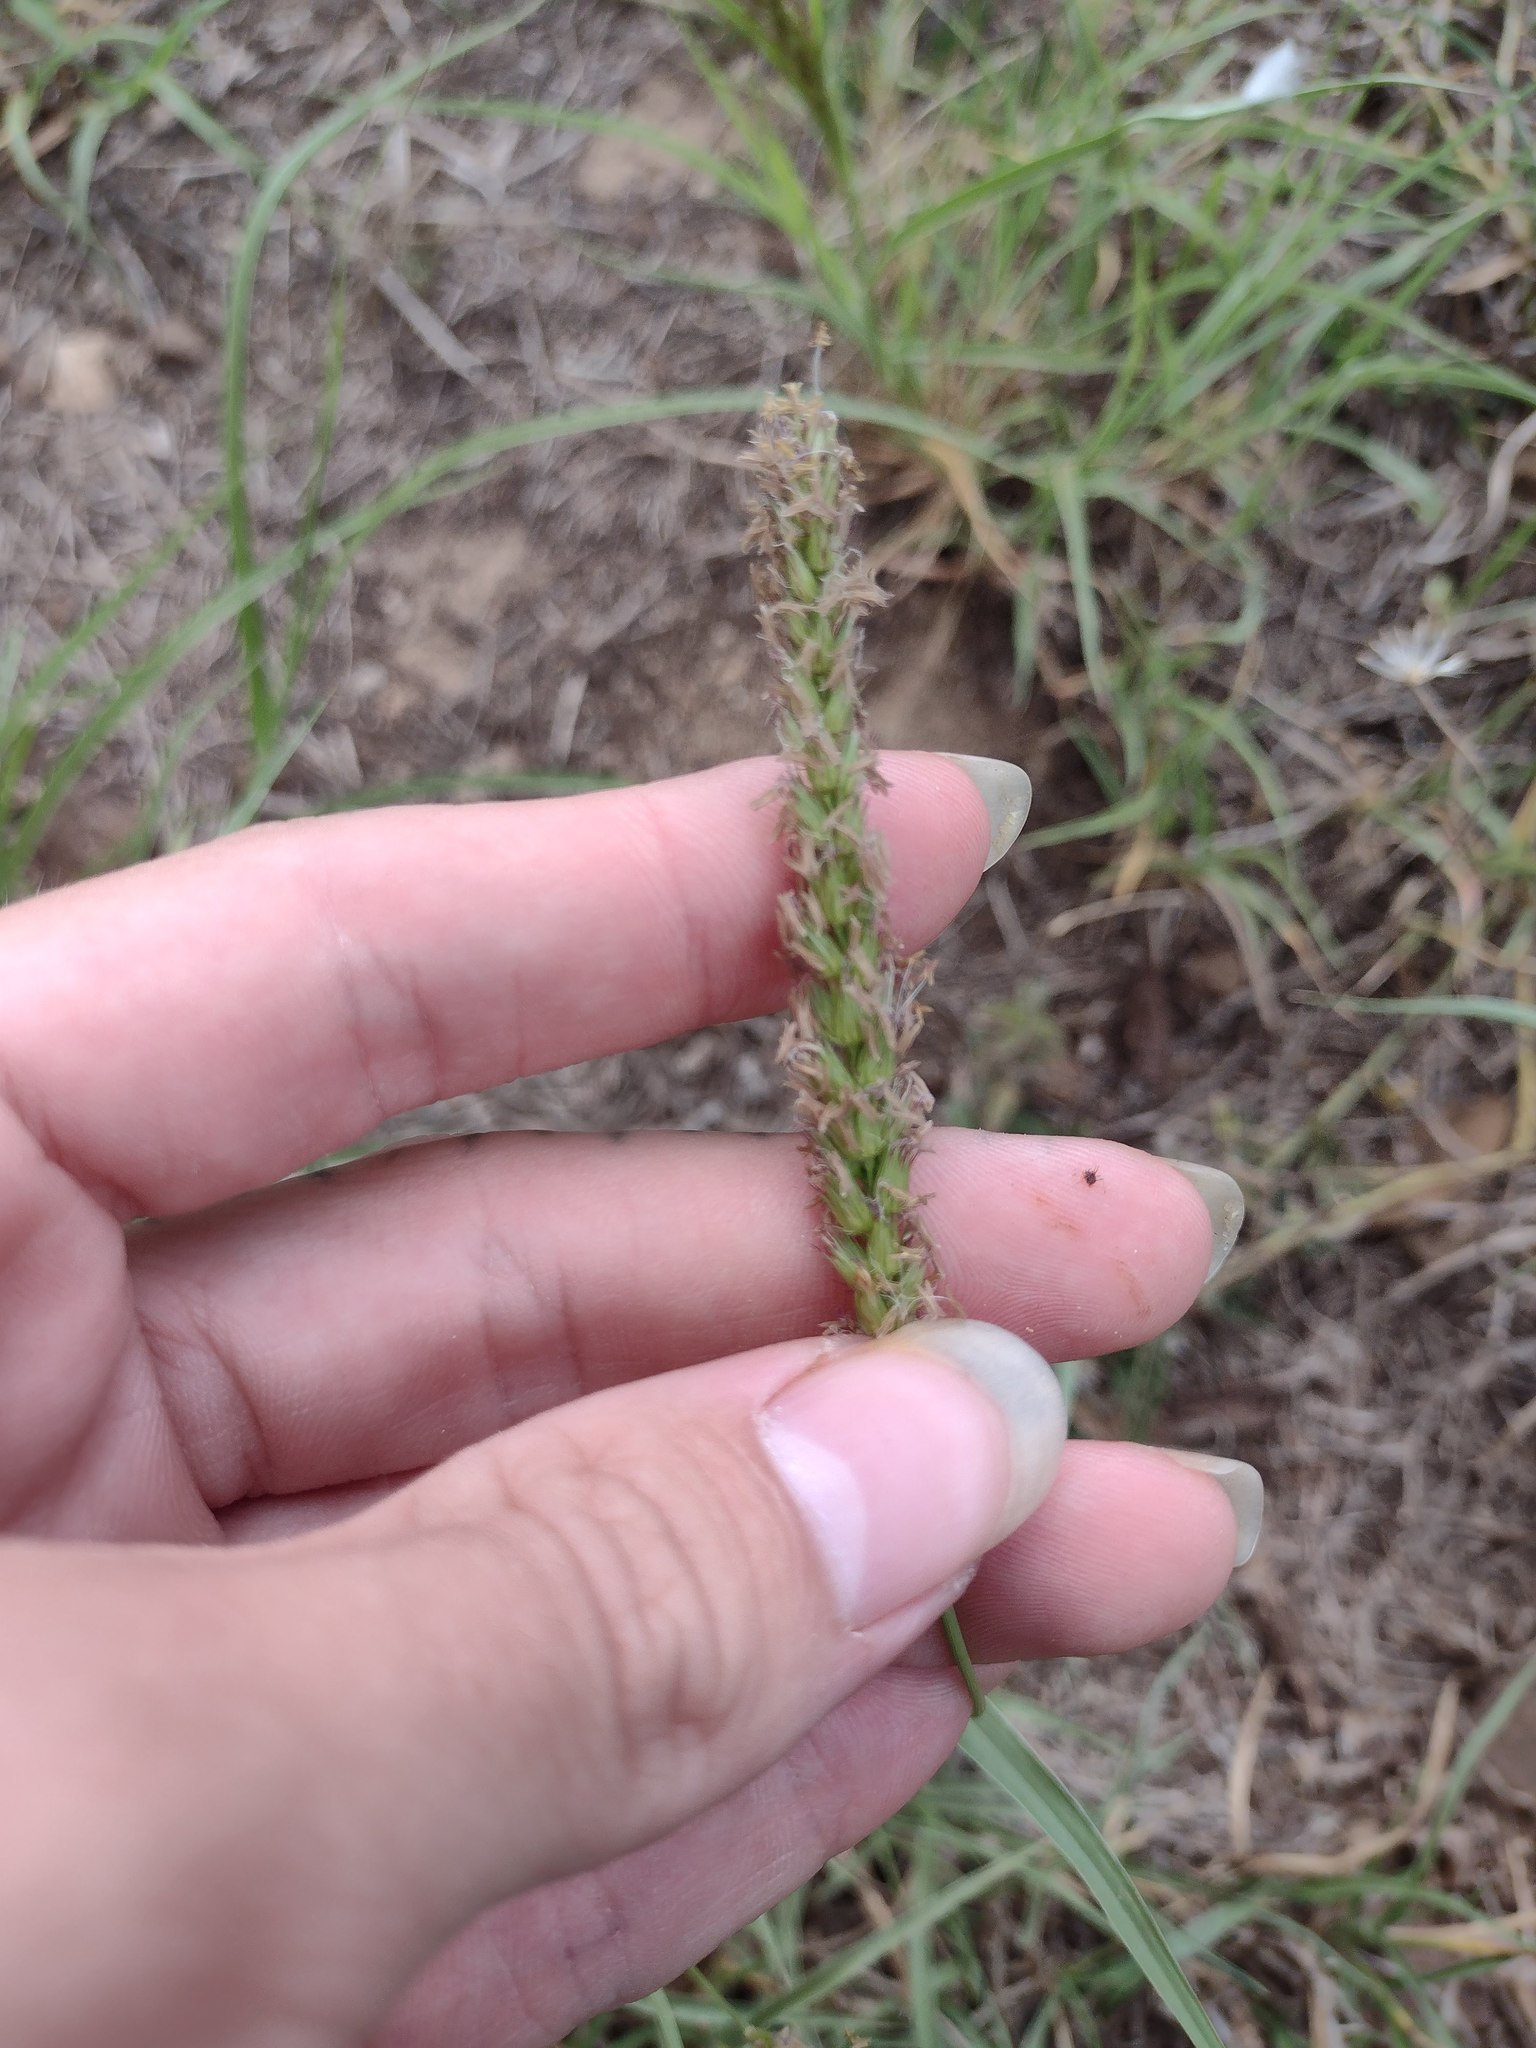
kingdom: Plantae
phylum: Tracheophyta
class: Liliopsida
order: Poales
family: Poaceae
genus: Cenchrus
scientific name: Cenchrus setigerus
